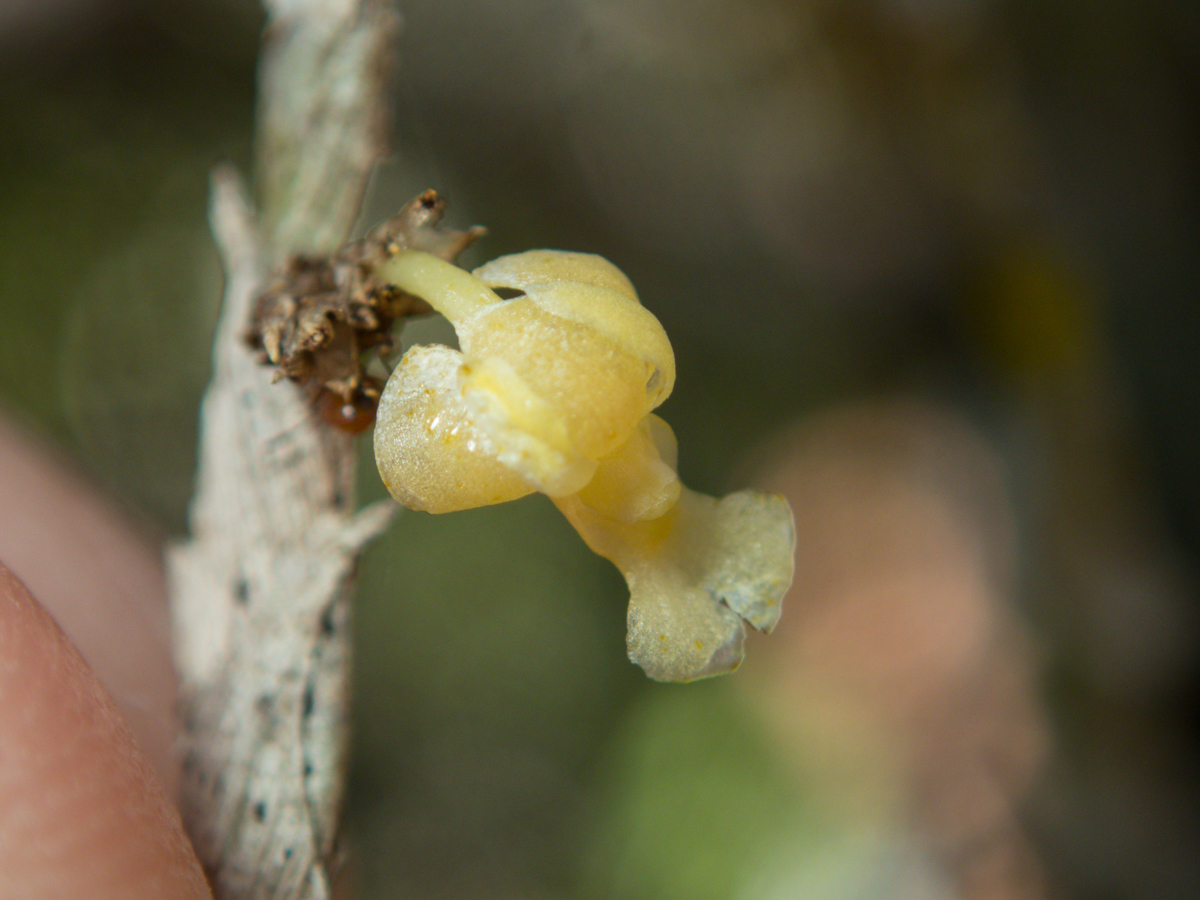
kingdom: Plantae
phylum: Tracheophyta
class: Liliopsida
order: Asparagales
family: Orchidaceae
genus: Dendrobium
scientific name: Dendrobium aloifolium
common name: Aloe-like dendrobium
